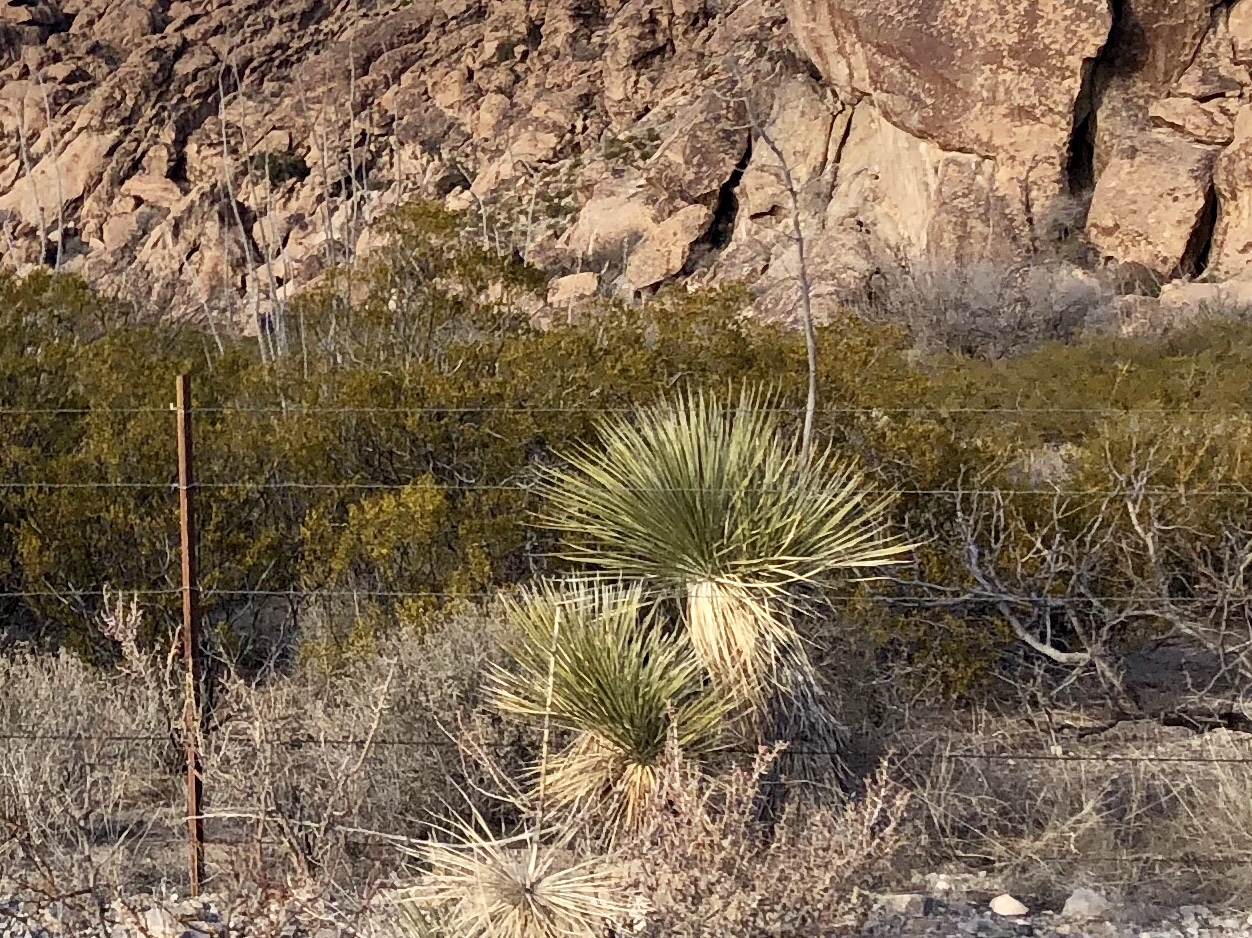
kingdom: Plantae
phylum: Tracheophyta
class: Liliopsida
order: Asparagales
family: Asparagaceae
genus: Yucca
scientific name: Yucca elata
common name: Palmella
